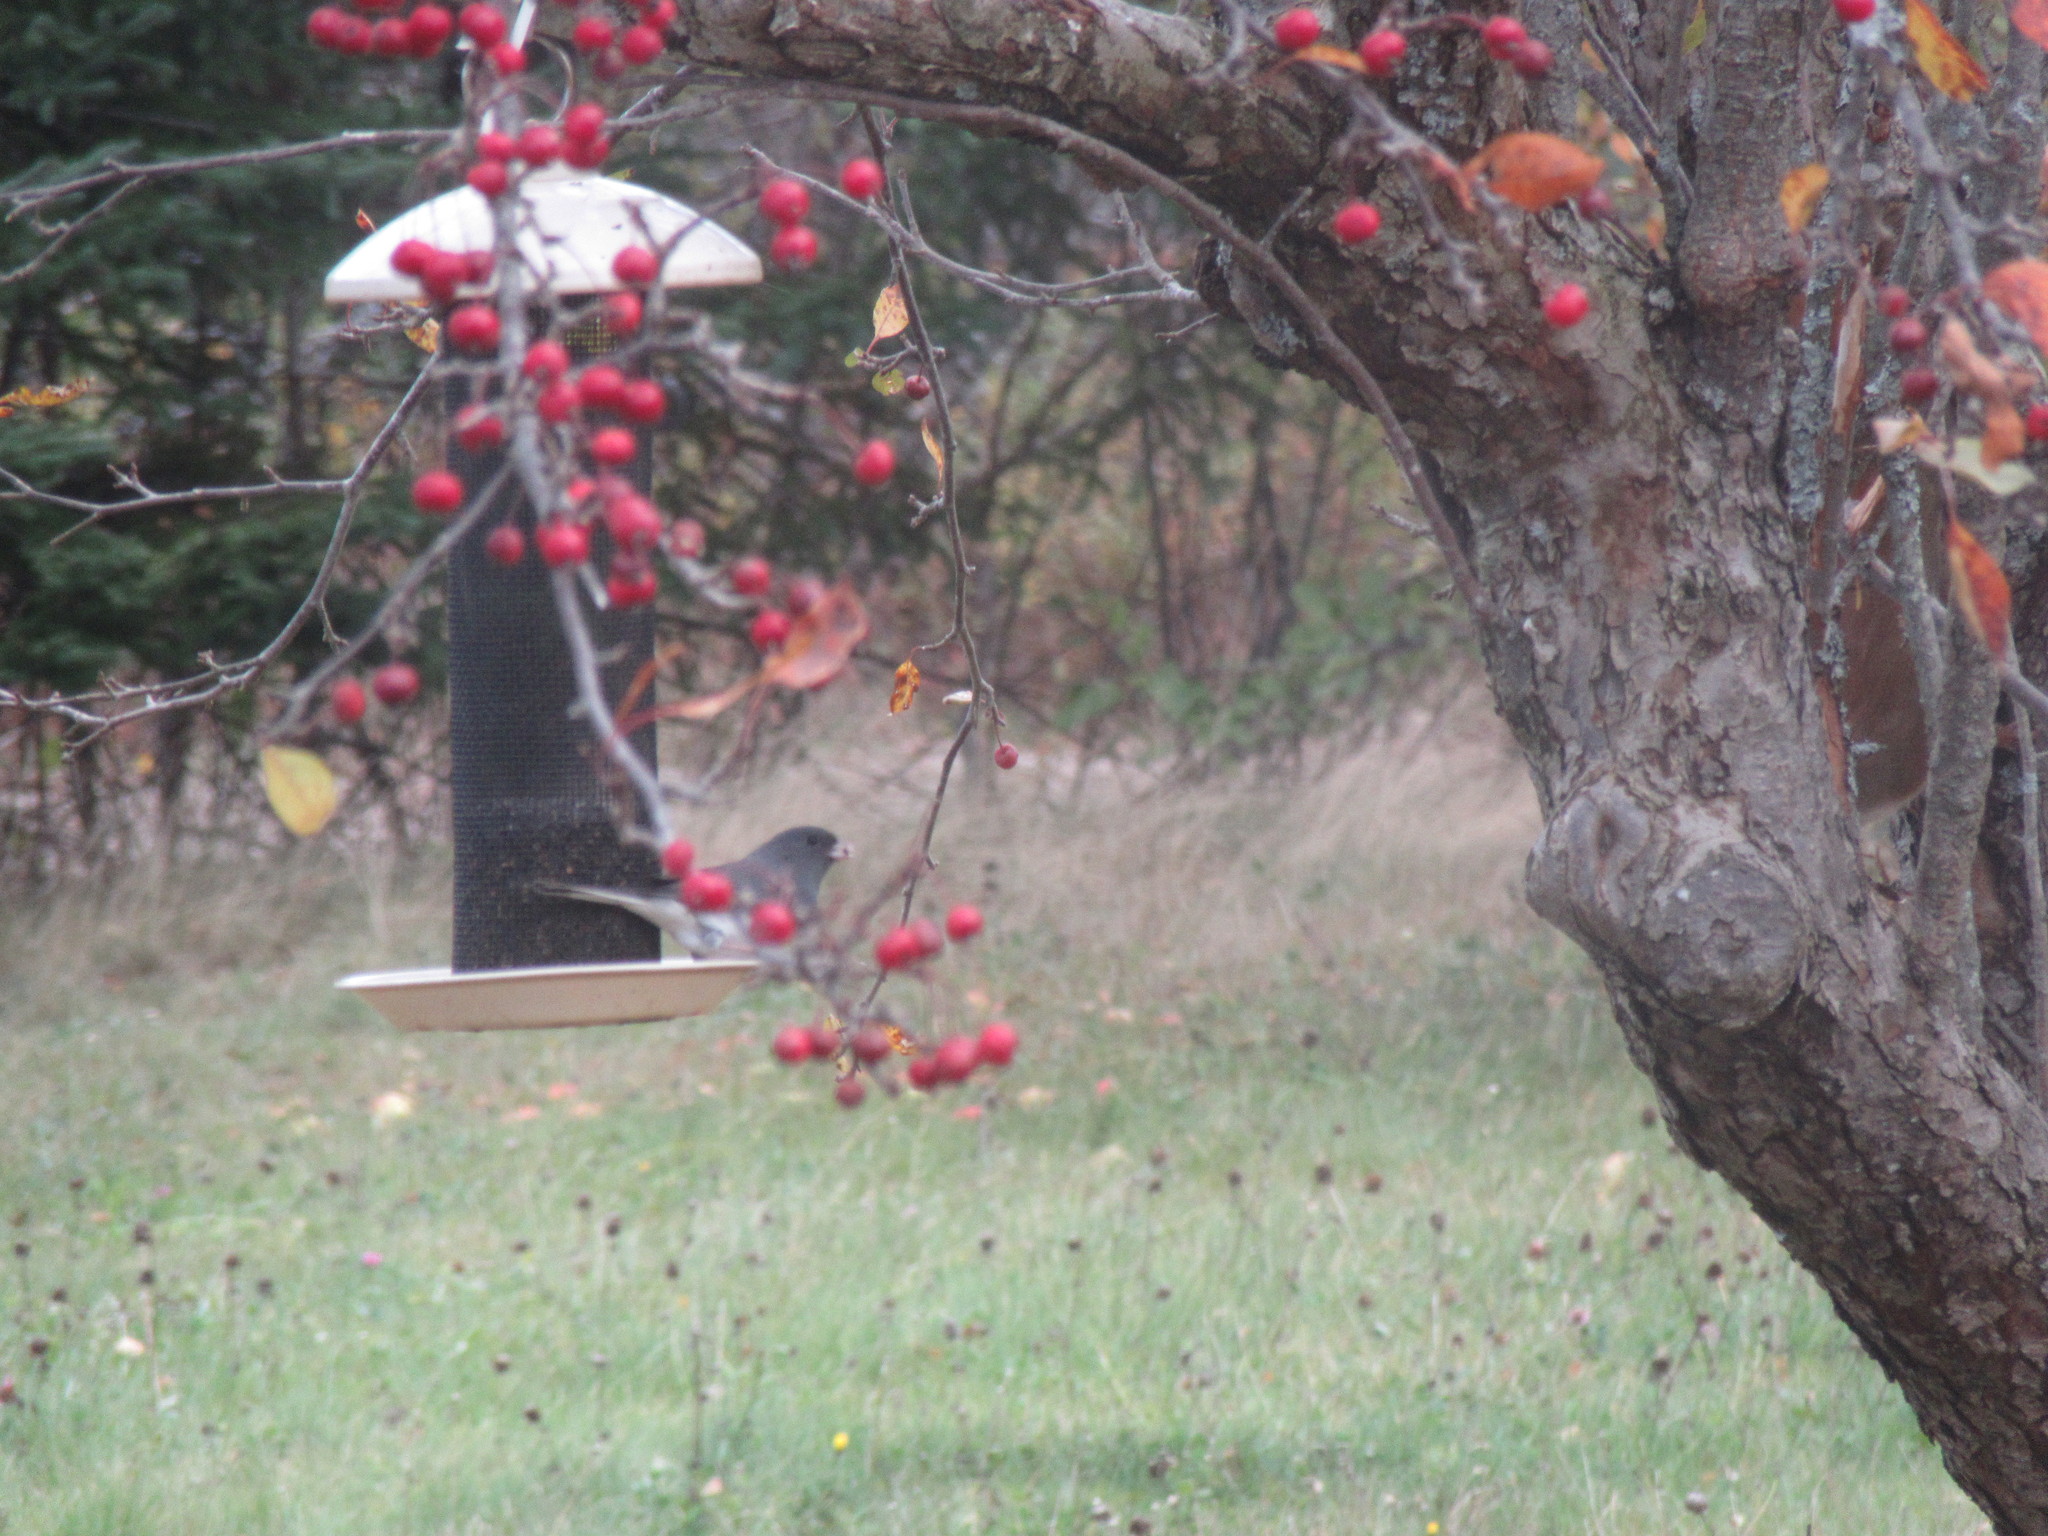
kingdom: Animalia
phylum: Chordata
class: Aves
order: Passeriformes
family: Passerellidae
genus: Junco
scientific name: Junco hyemalis
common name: Dark-eyed junco
